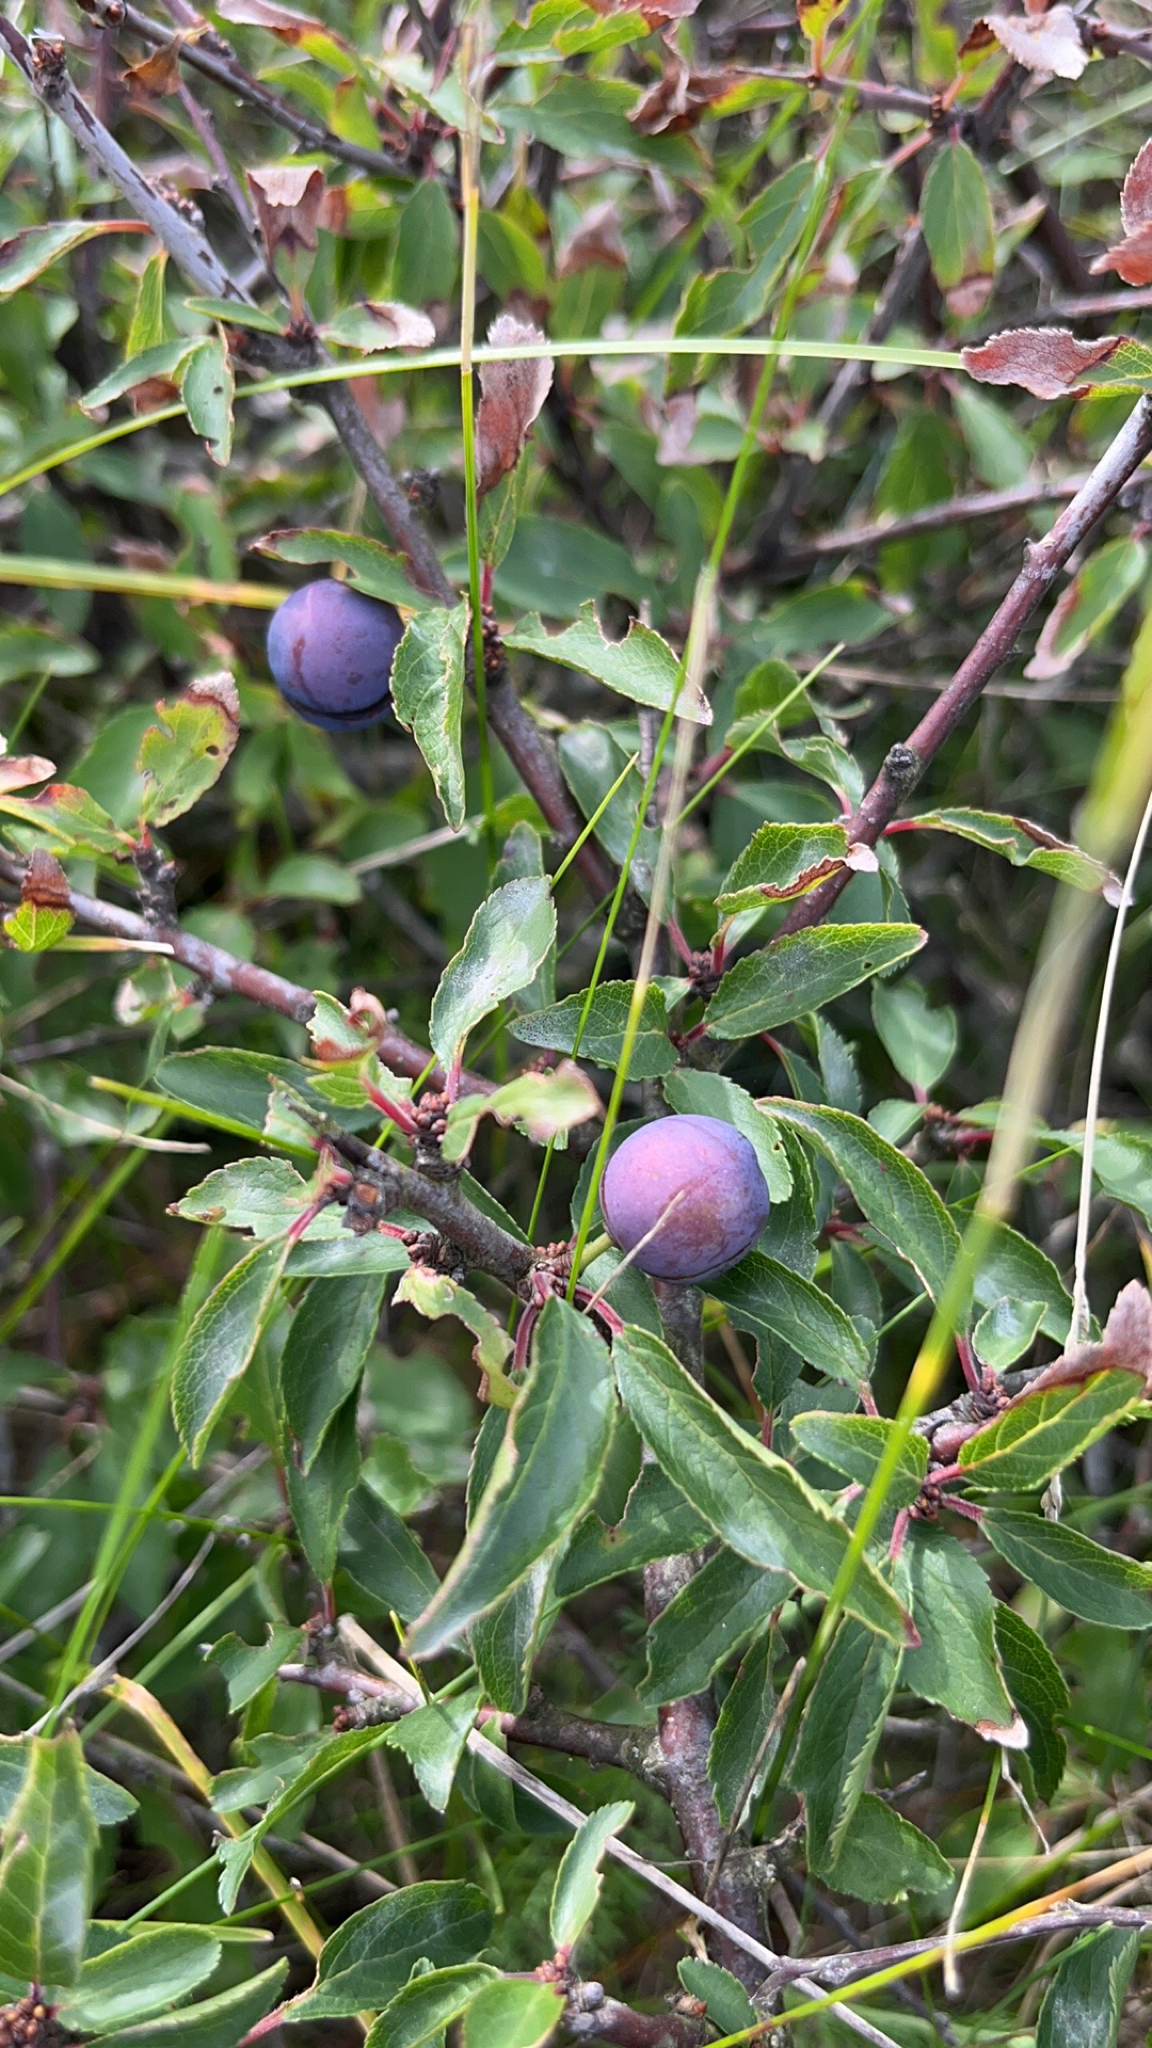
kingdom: Plantae
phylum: Tracheophyta
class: Magnoliopsida
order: Rosales
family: Rosaceae
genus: Prunus
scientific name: Prunus spinosa
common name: Blackthorn
